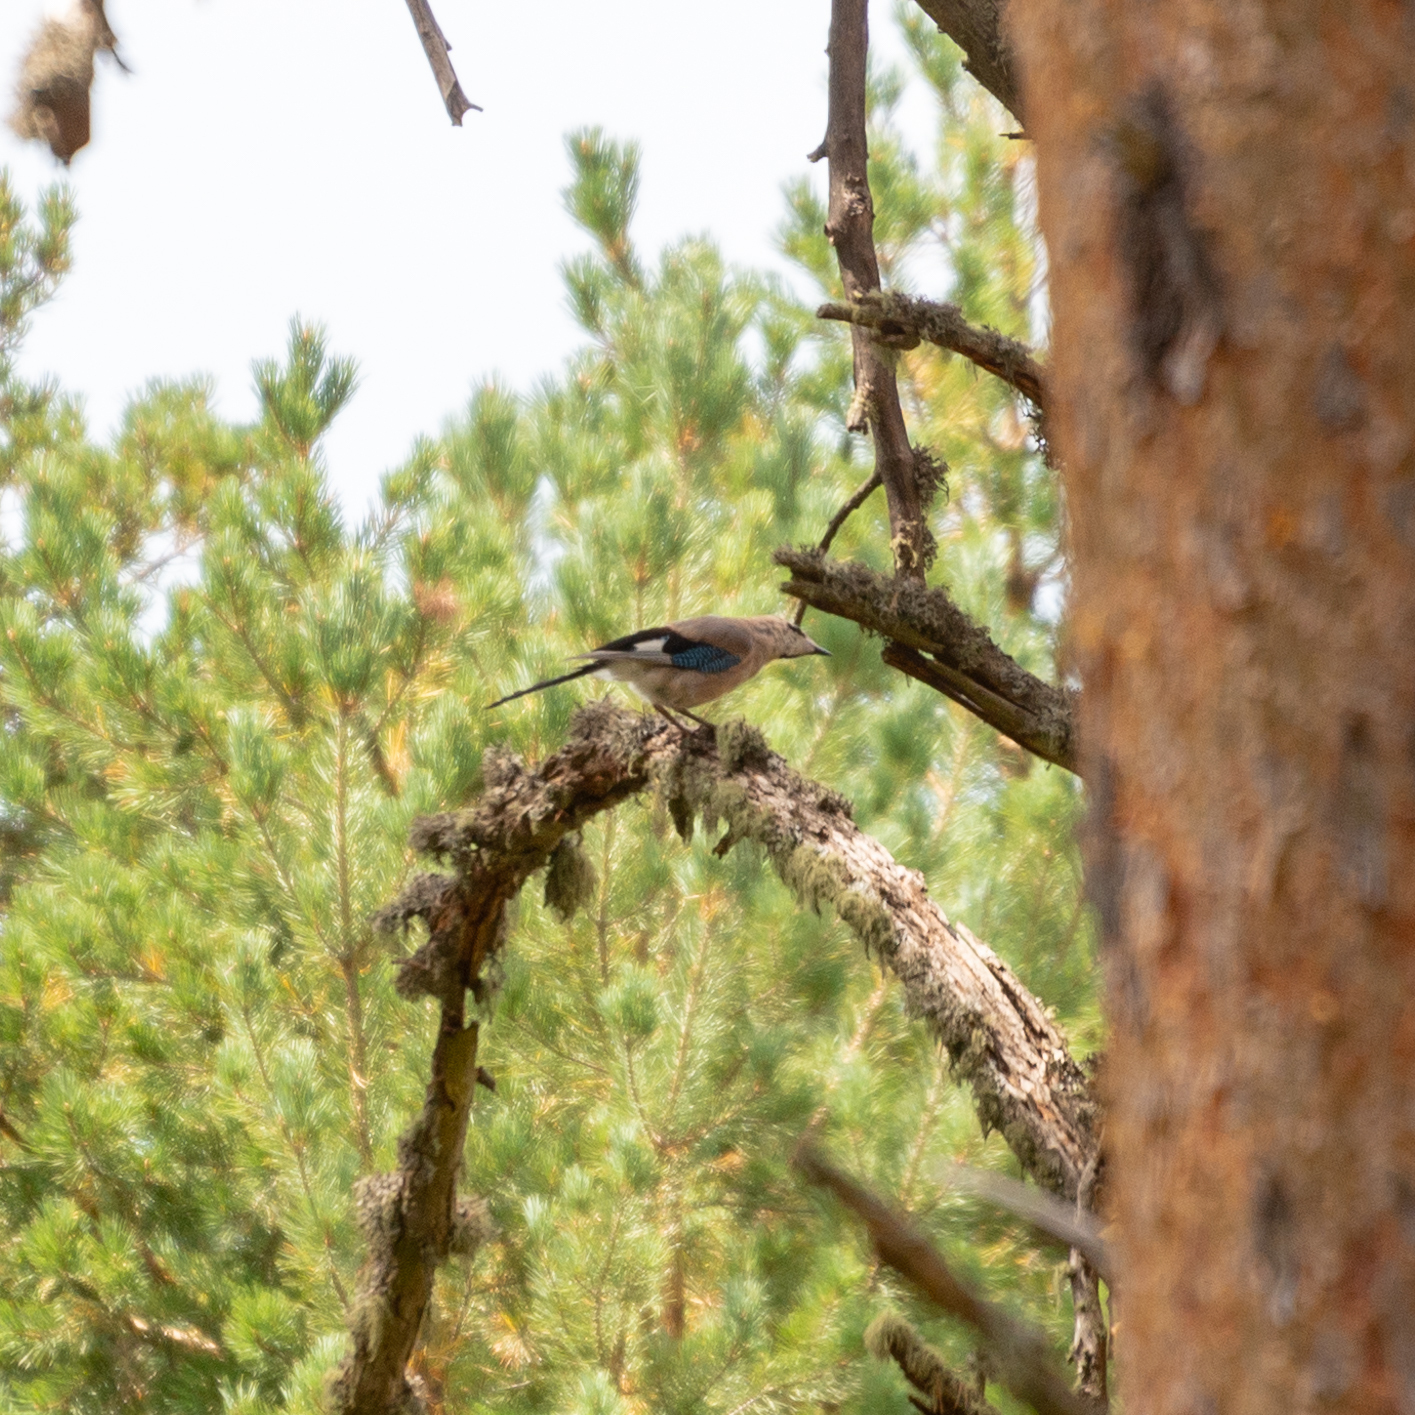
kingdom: Animalia
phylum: Chordata
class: Aves
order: Passeriformes
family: Corvidae
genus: Garrulus
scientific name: Garrulus glandarius
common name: Eurasian jay
